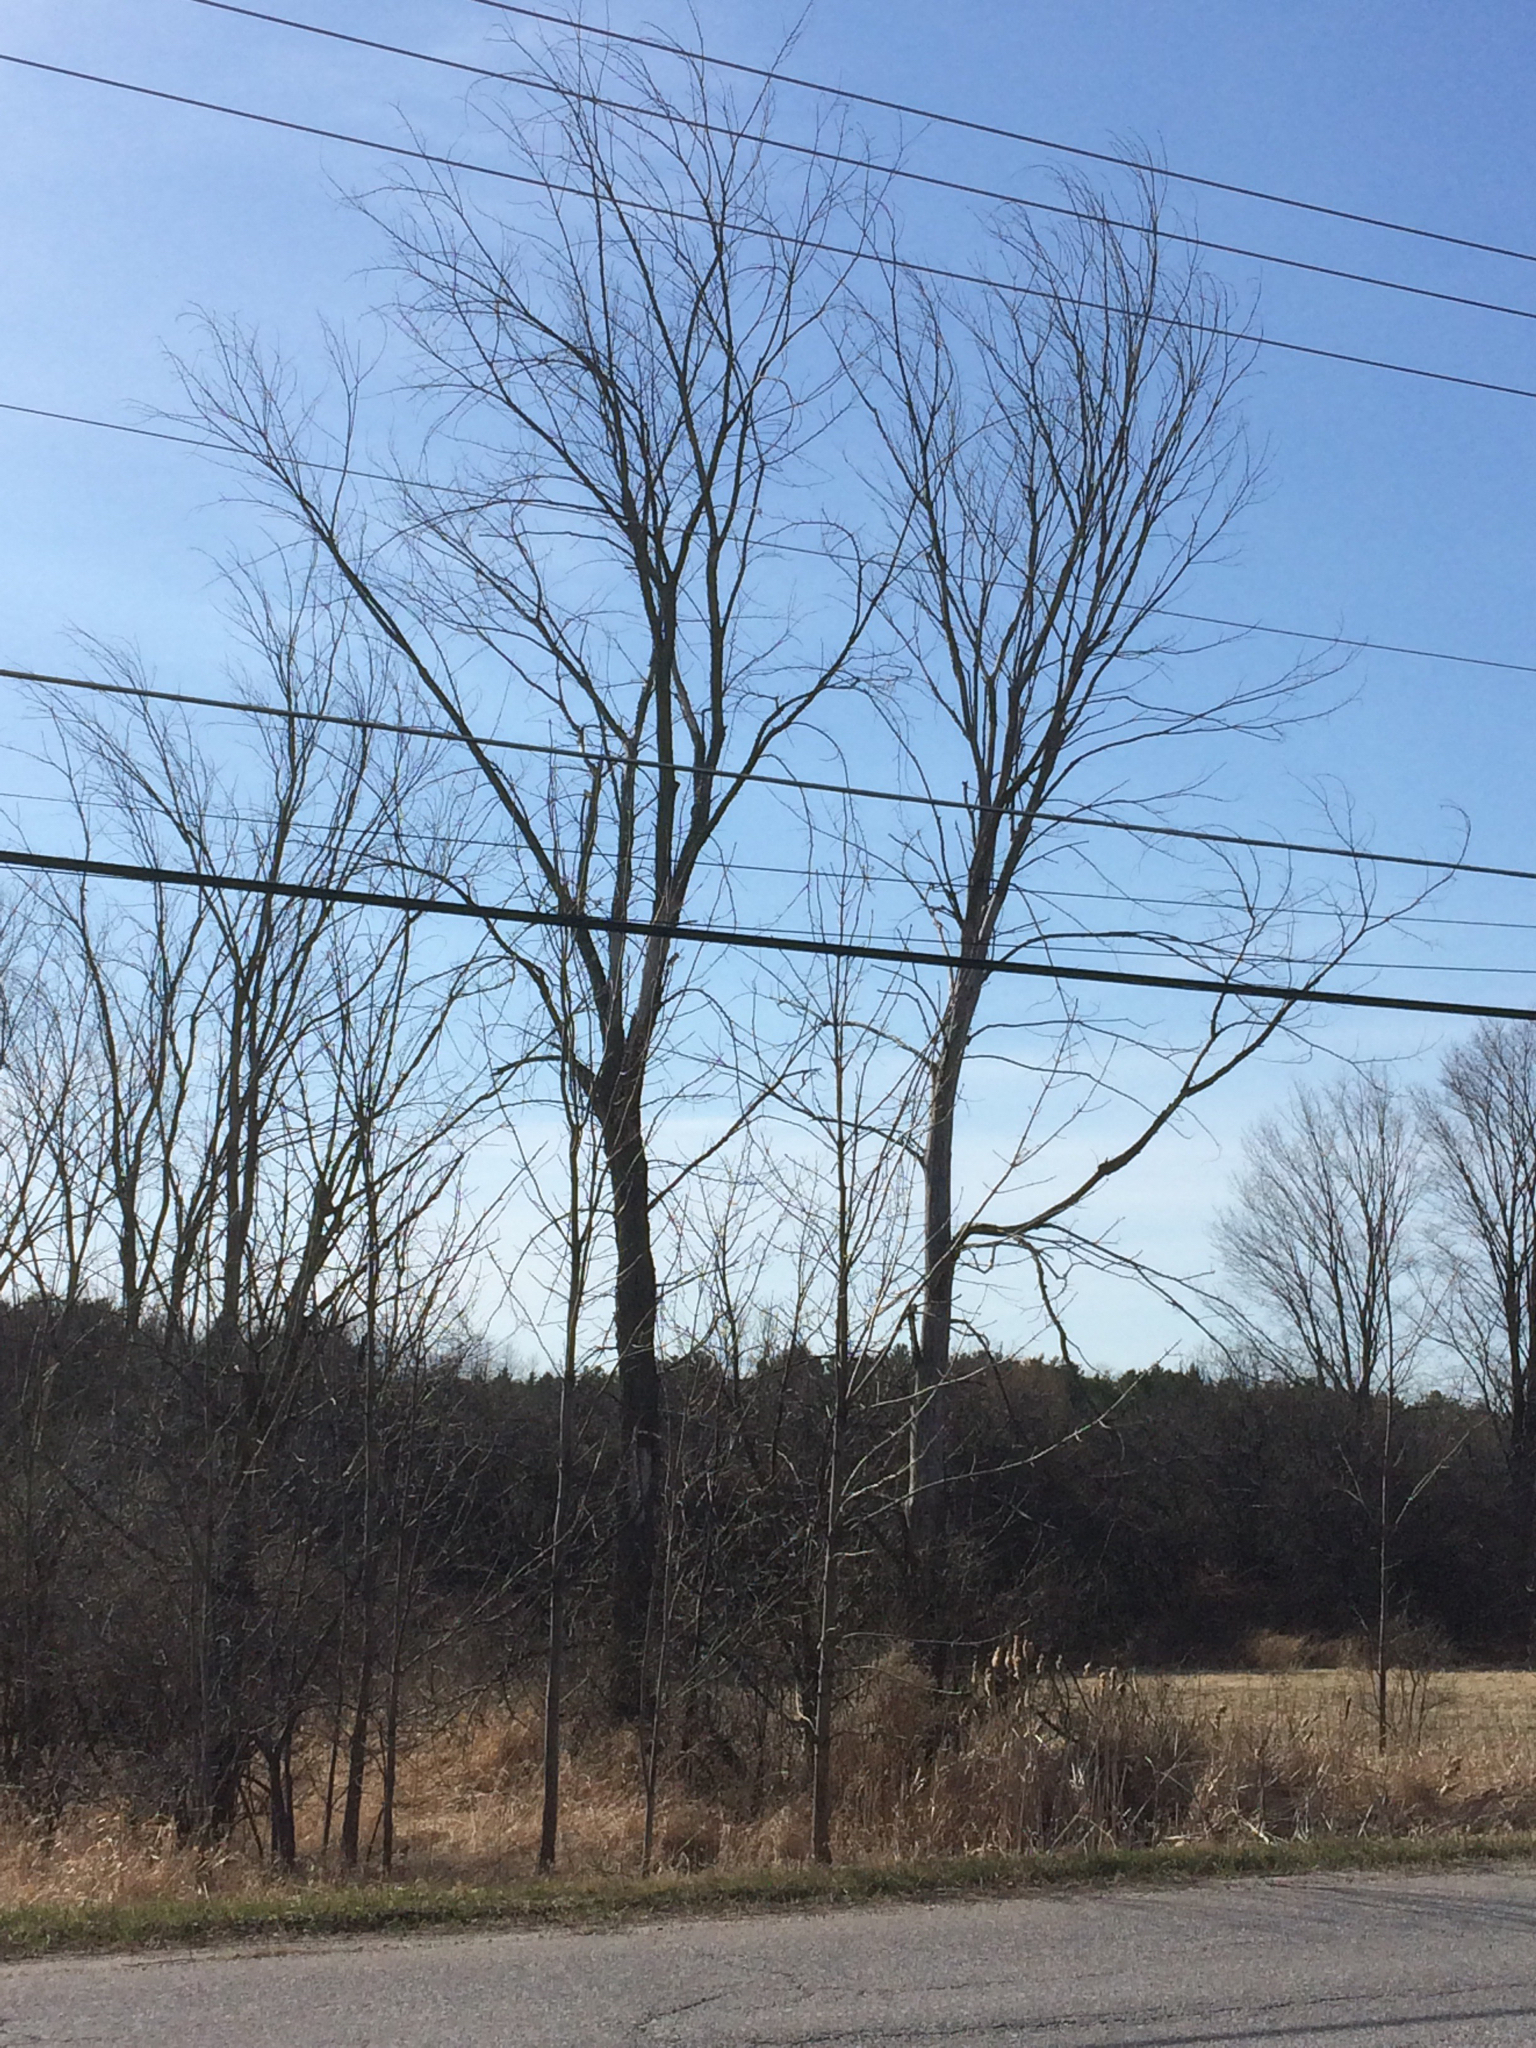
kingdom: Plantae
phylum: Tracheophyta
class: Magnoliopsida
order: Rosales
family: Ulmaceae
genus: Ulmus
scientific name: Ulmus americana
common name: American elm
